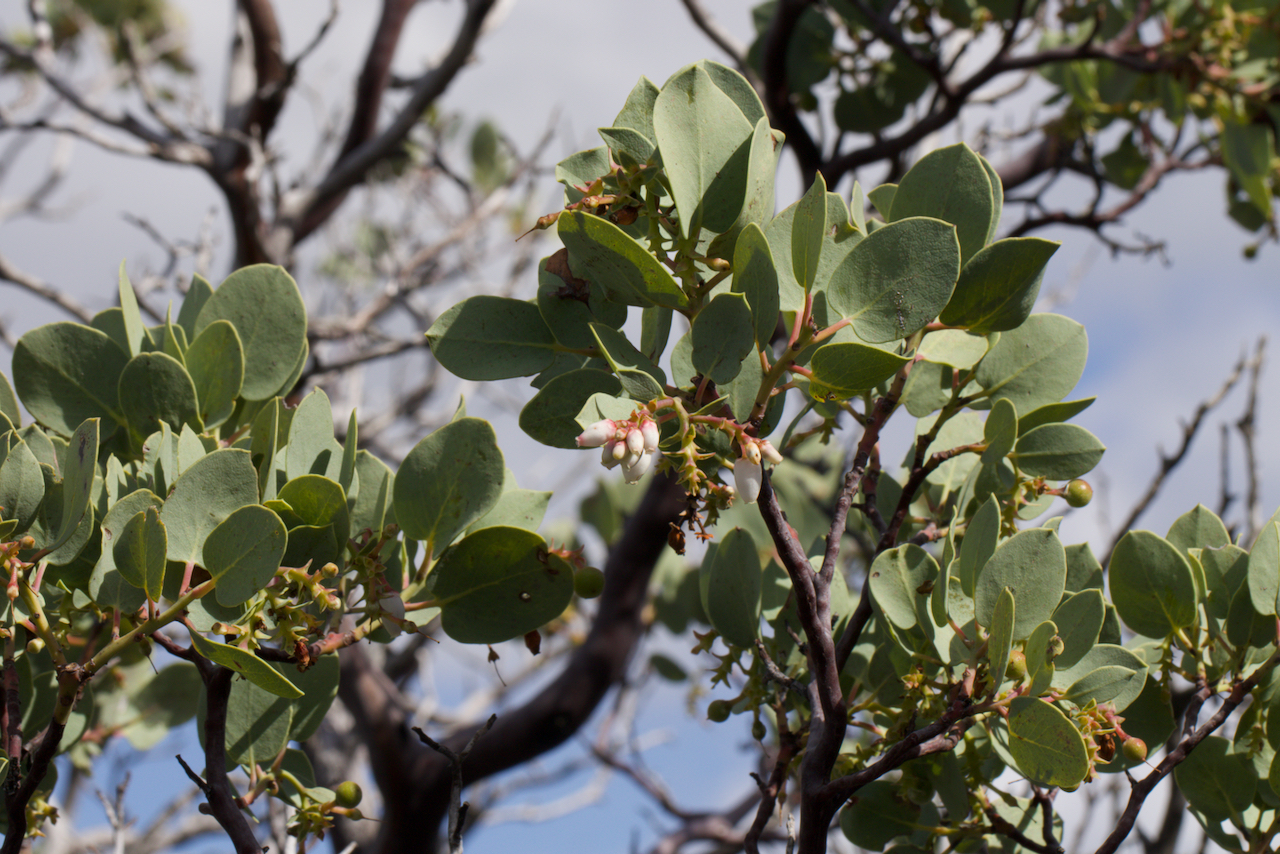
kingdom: Plantae
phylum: Tracheophyta
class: Magnoliopsida
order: Ericales
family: Ericaceae
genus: Arctostaphylos
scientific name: Arctostaphylos glauca
